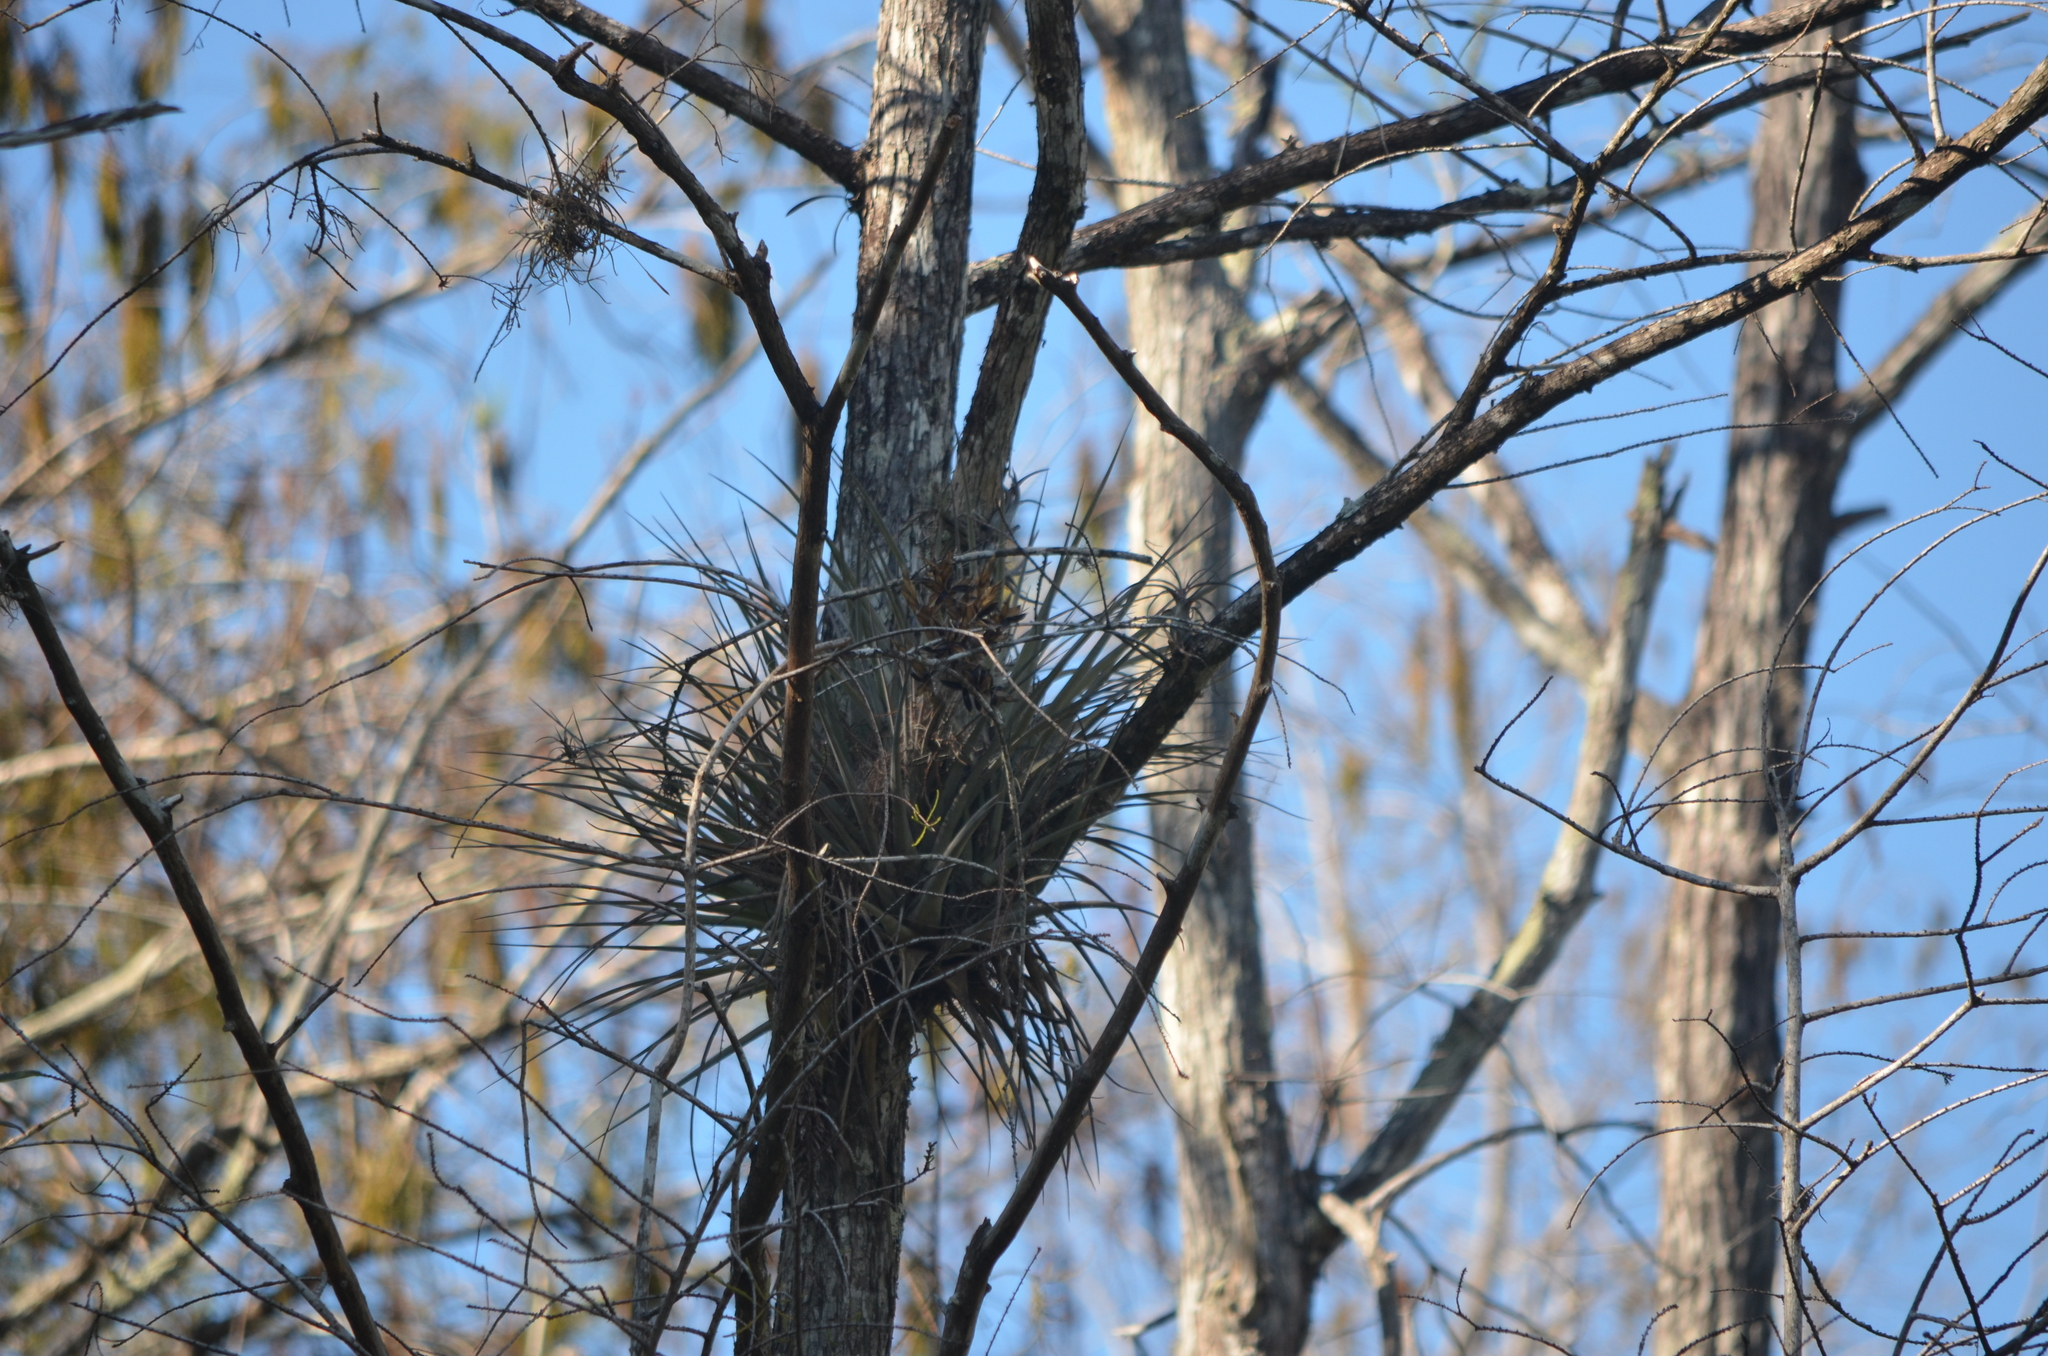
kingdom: Plantae
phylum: Tracheophyta
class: Liliopsida
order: Poales
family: Bromeliaceae
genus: Tillandsia
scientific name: Tillandsia fasciculata
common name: Giant airplant
